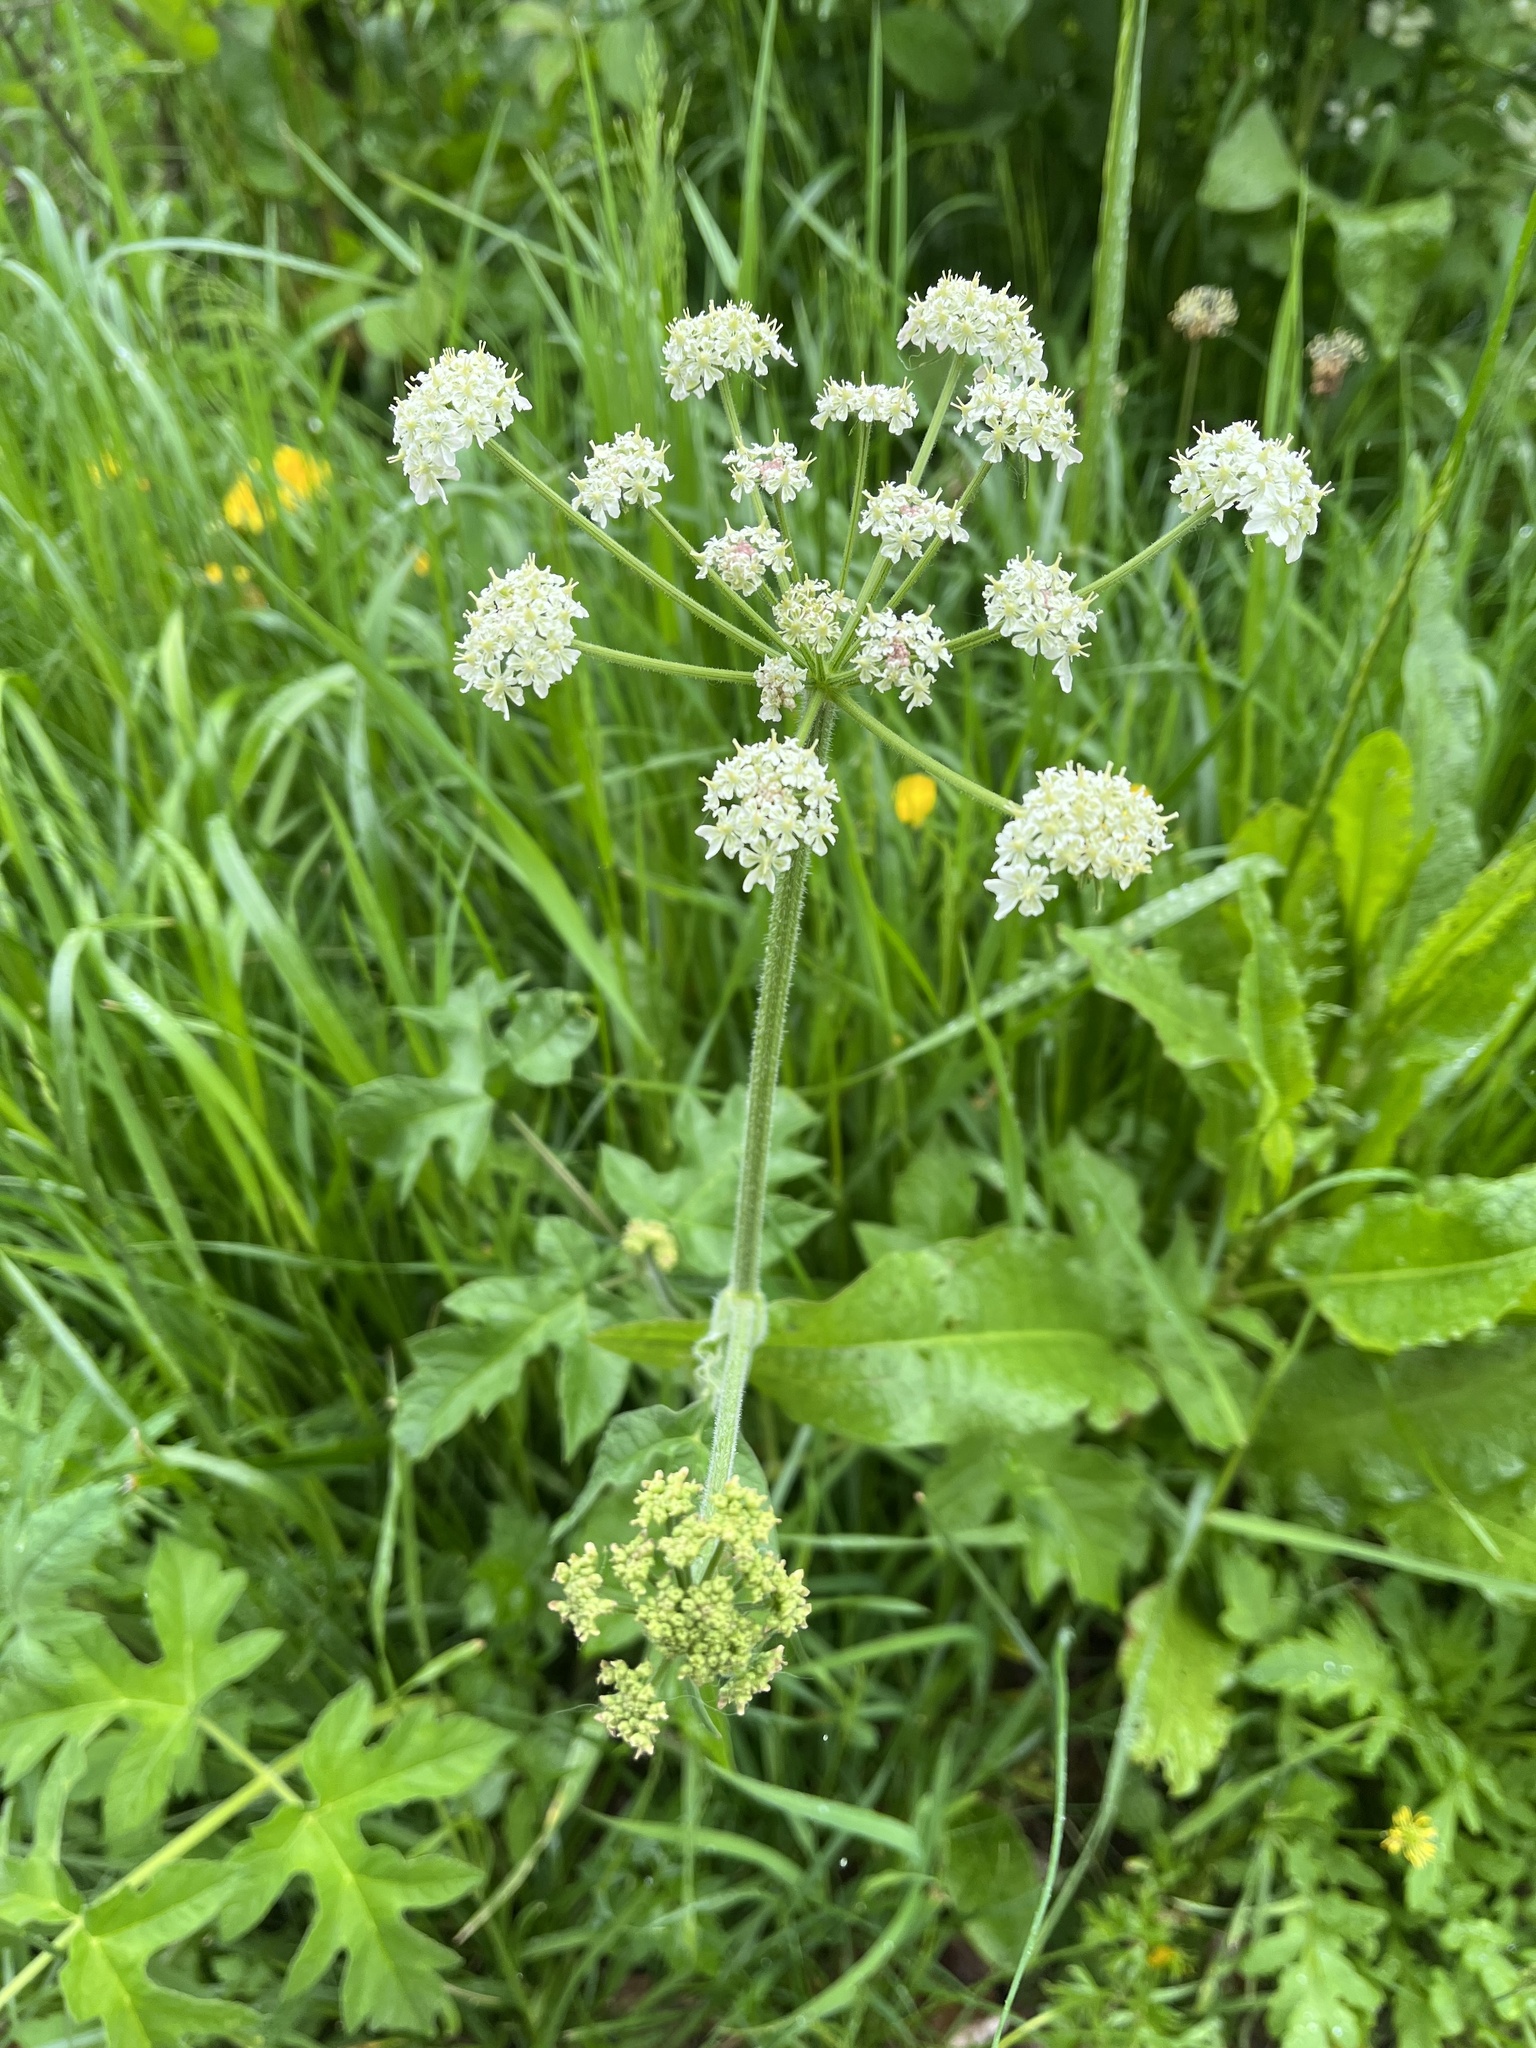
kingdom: Plantae
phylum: Tracheophyta
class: Magnoliopsida
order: Apiales
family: Apiaceae
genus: Heracleum
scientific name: Heracleum sphondylium
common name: Hogweed
